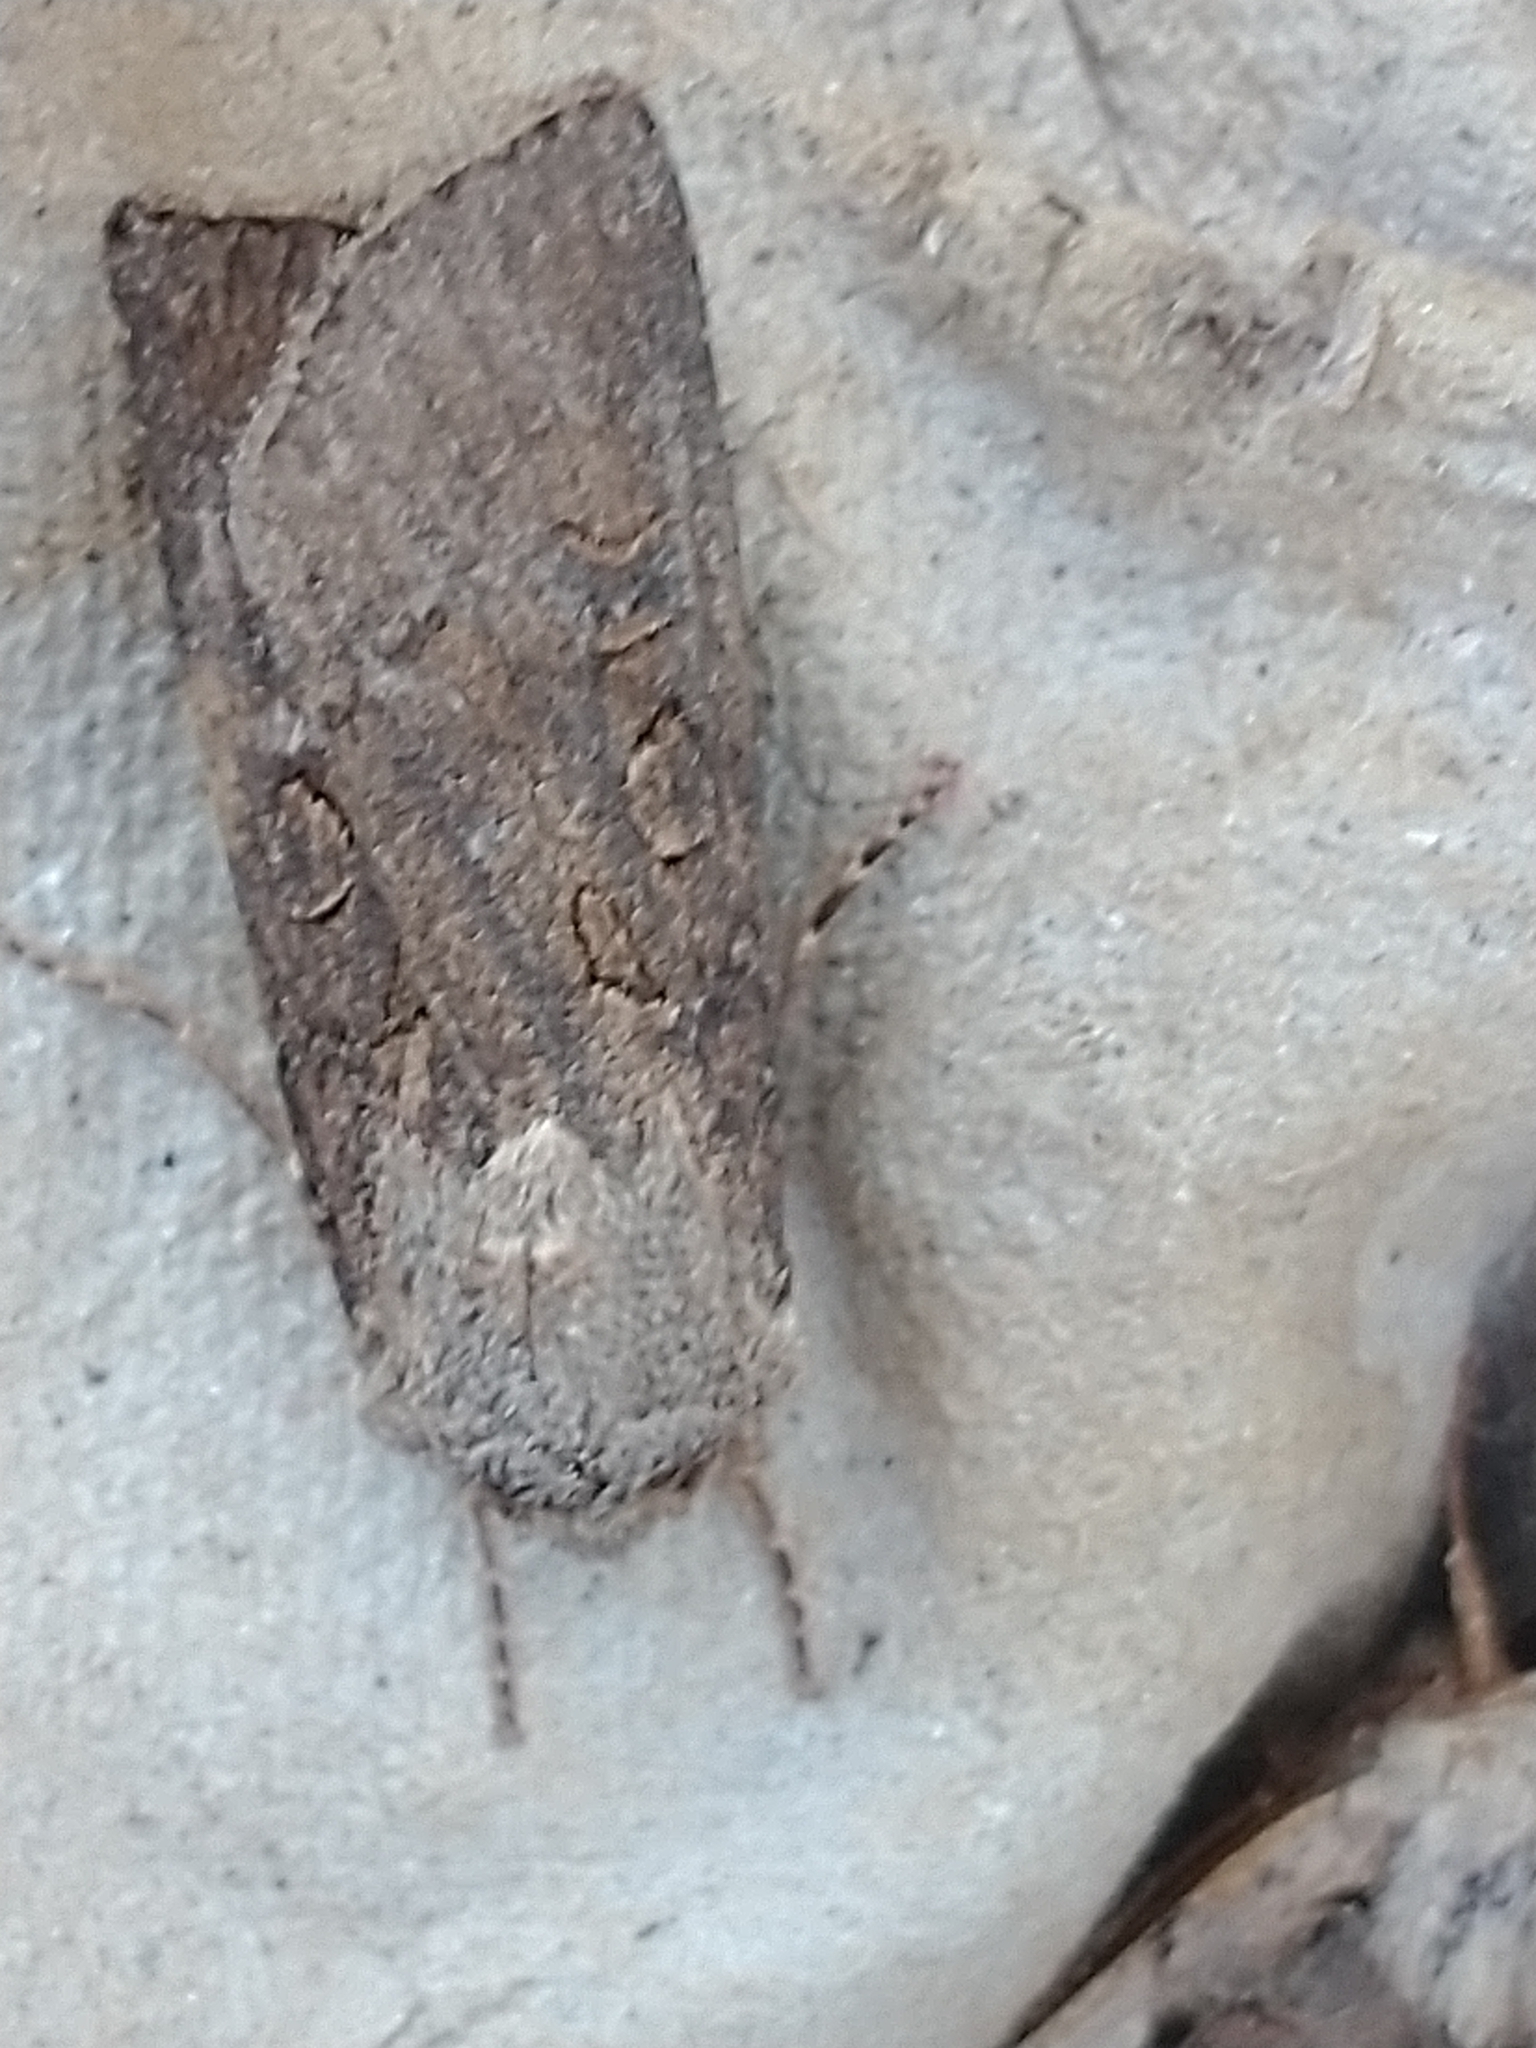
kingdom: Animalia
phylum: Arthropoda
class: Insecta
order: Lepidoptera
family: Noctuidae
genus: Agrotis
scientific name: Agrotis segetum
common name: Turnip moth
